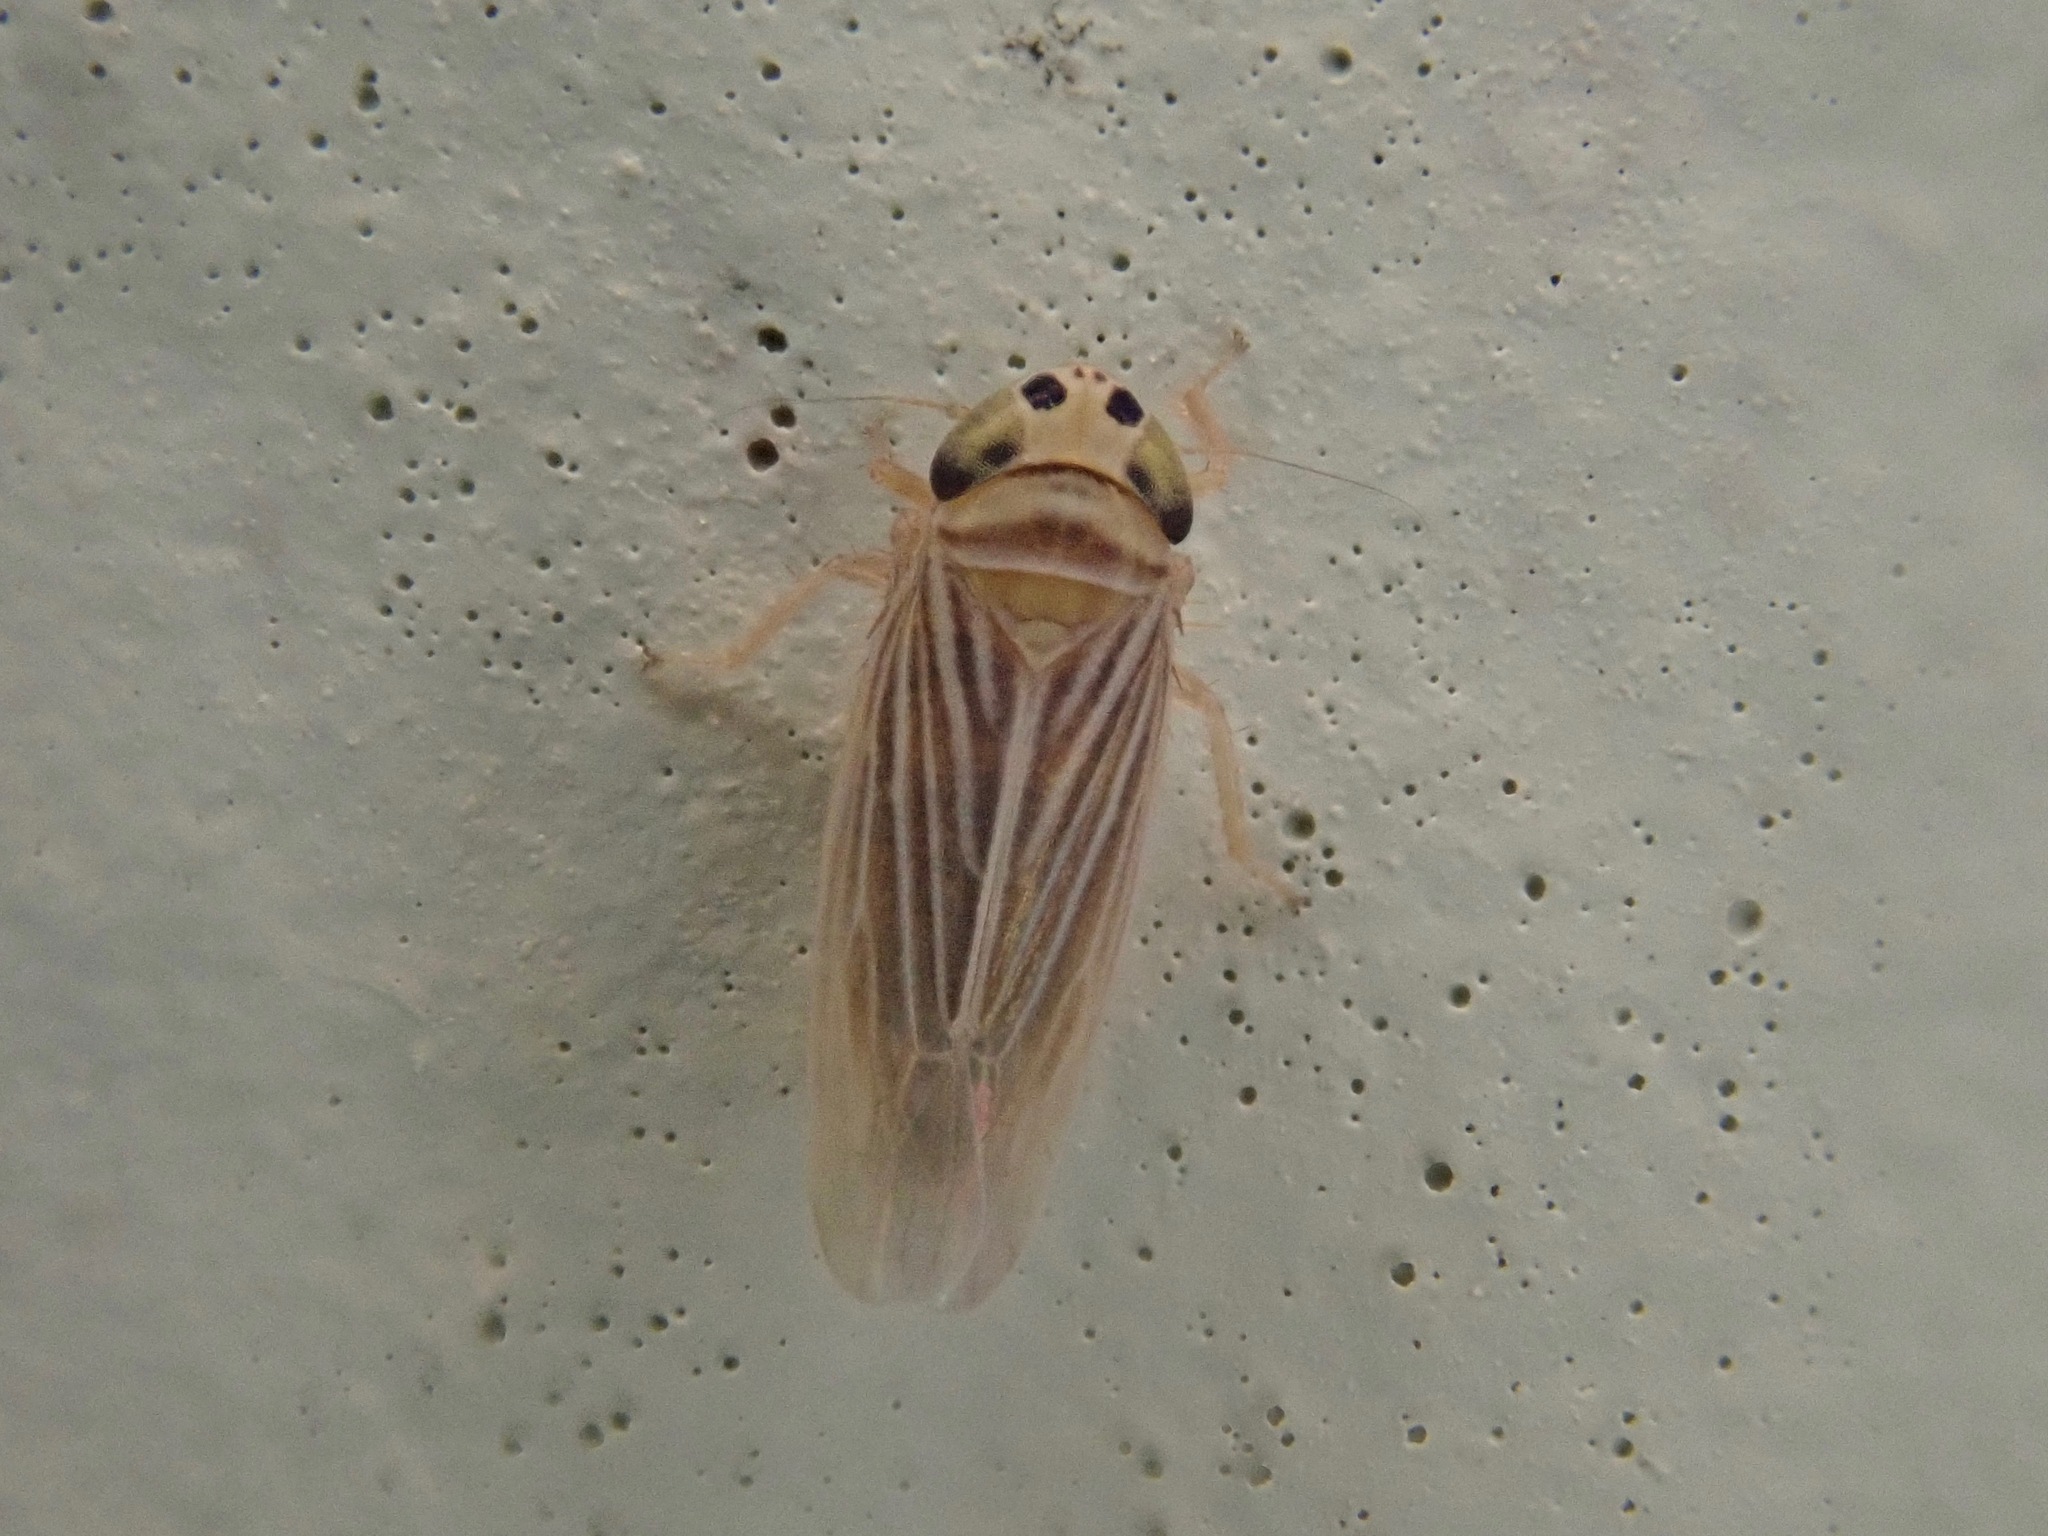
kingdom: Animalia
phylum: Arthropoda
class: Insecta
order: Hemiptera
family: Cicadellidae
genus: Graminella
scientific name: Graminella villicus
